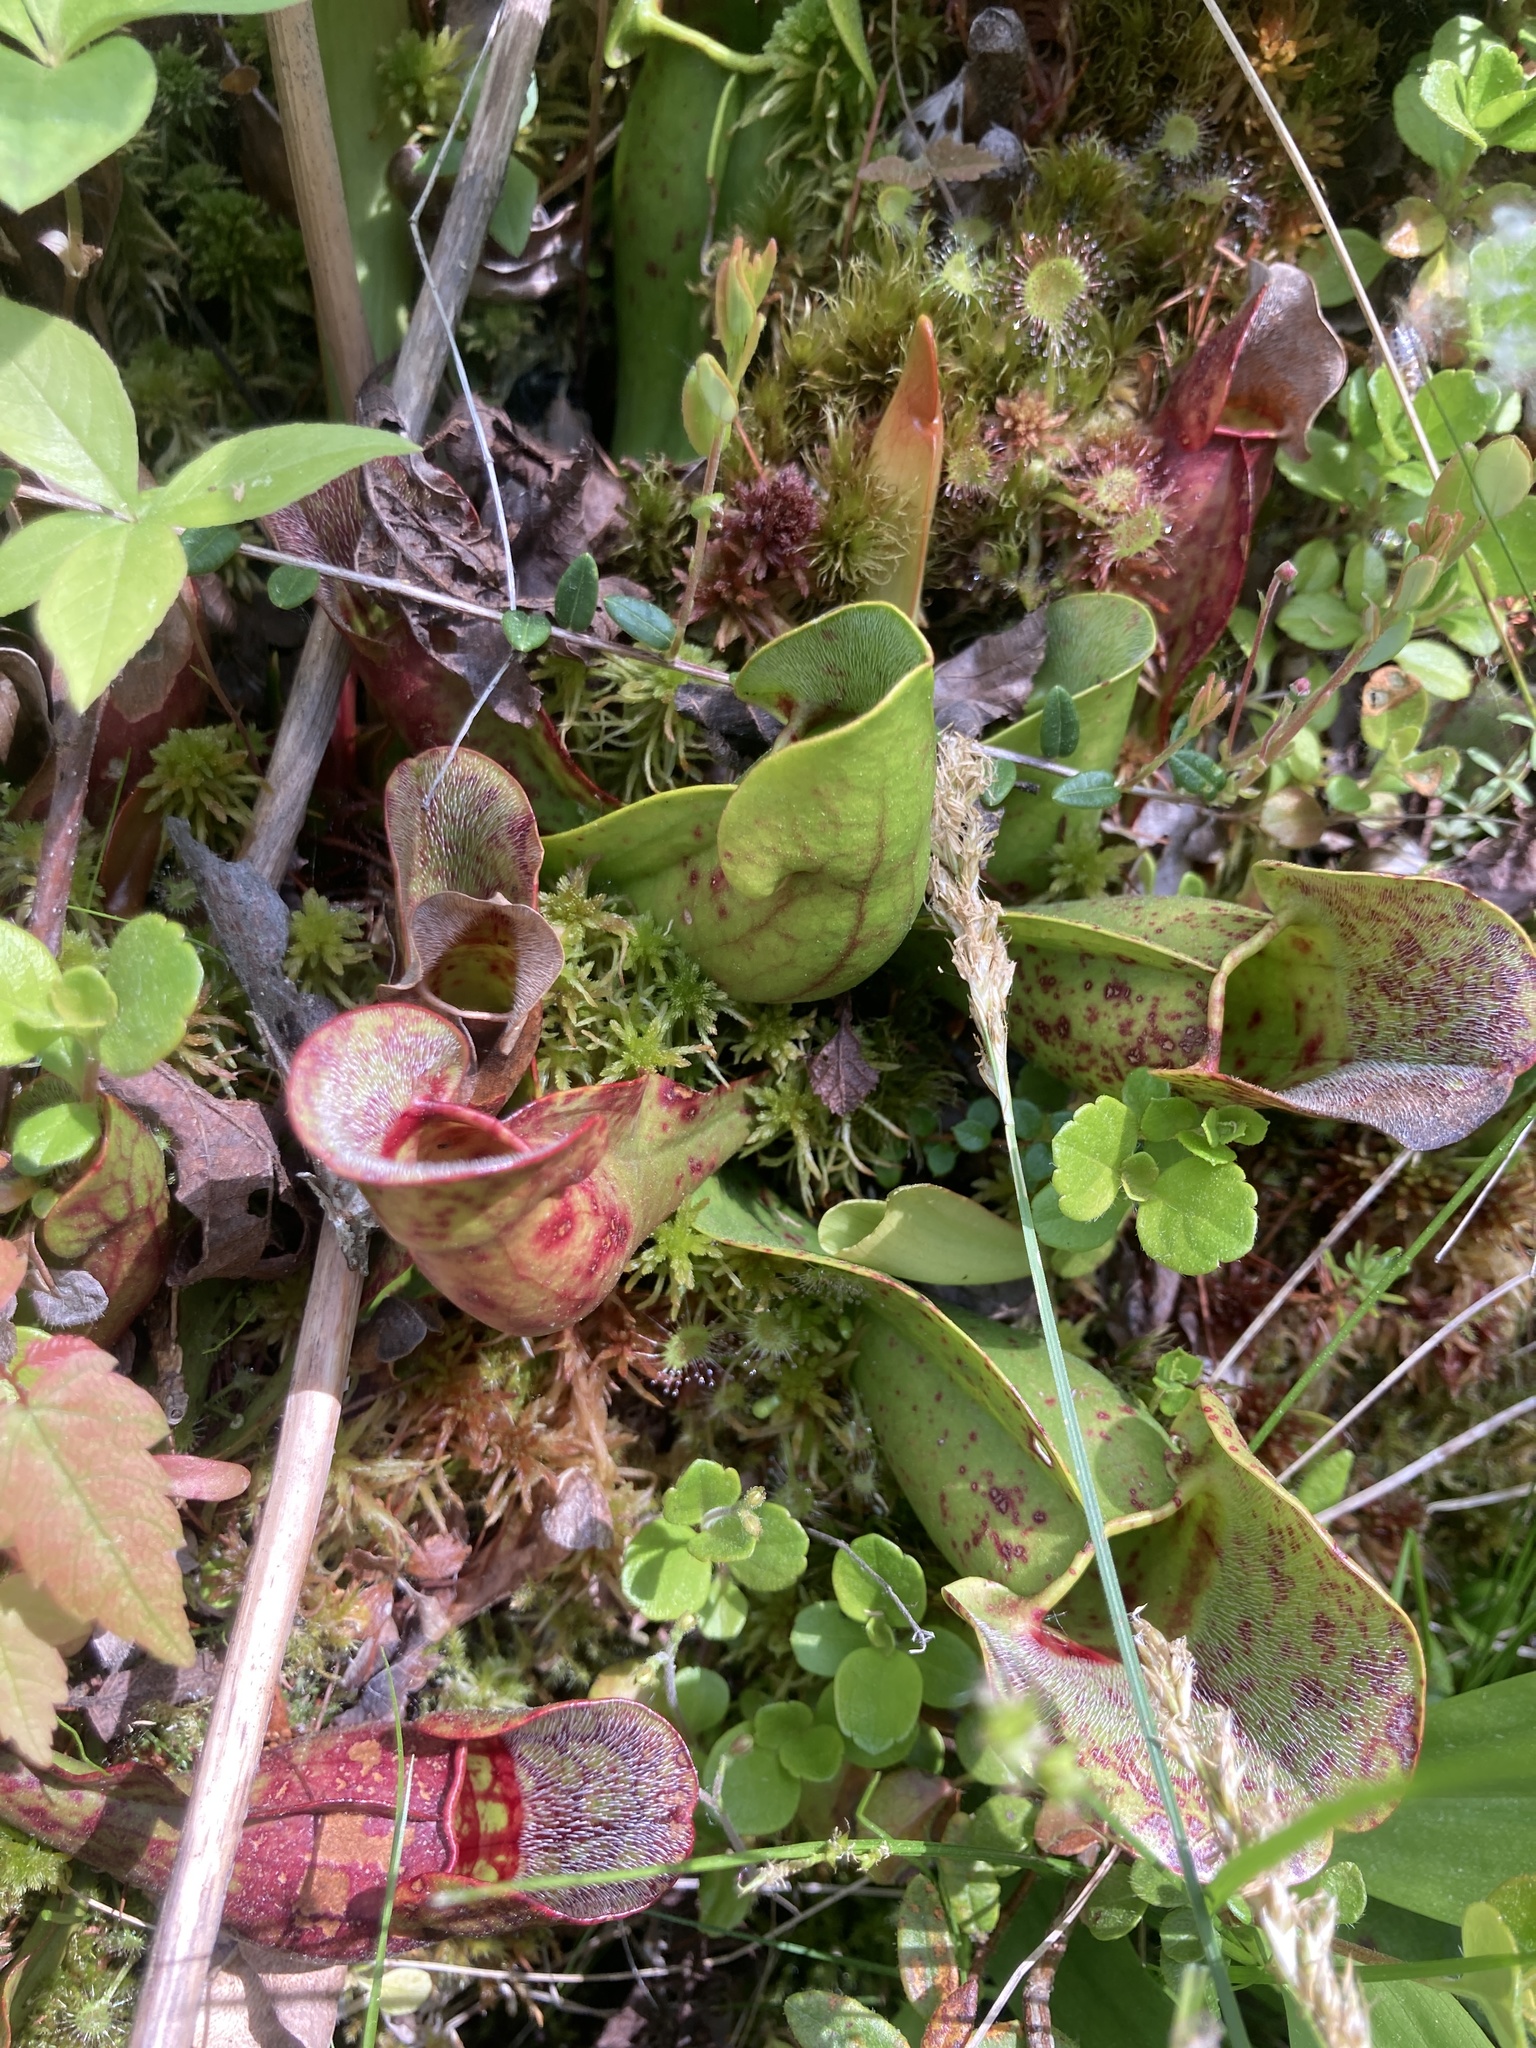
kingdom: Plantae
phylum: Tracheophyta
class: Magnoliopsida
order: Ericales
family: Sarraceniaceae
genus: Sarracenia
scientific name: Sarracenia purpurea
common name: Pitcherplant
